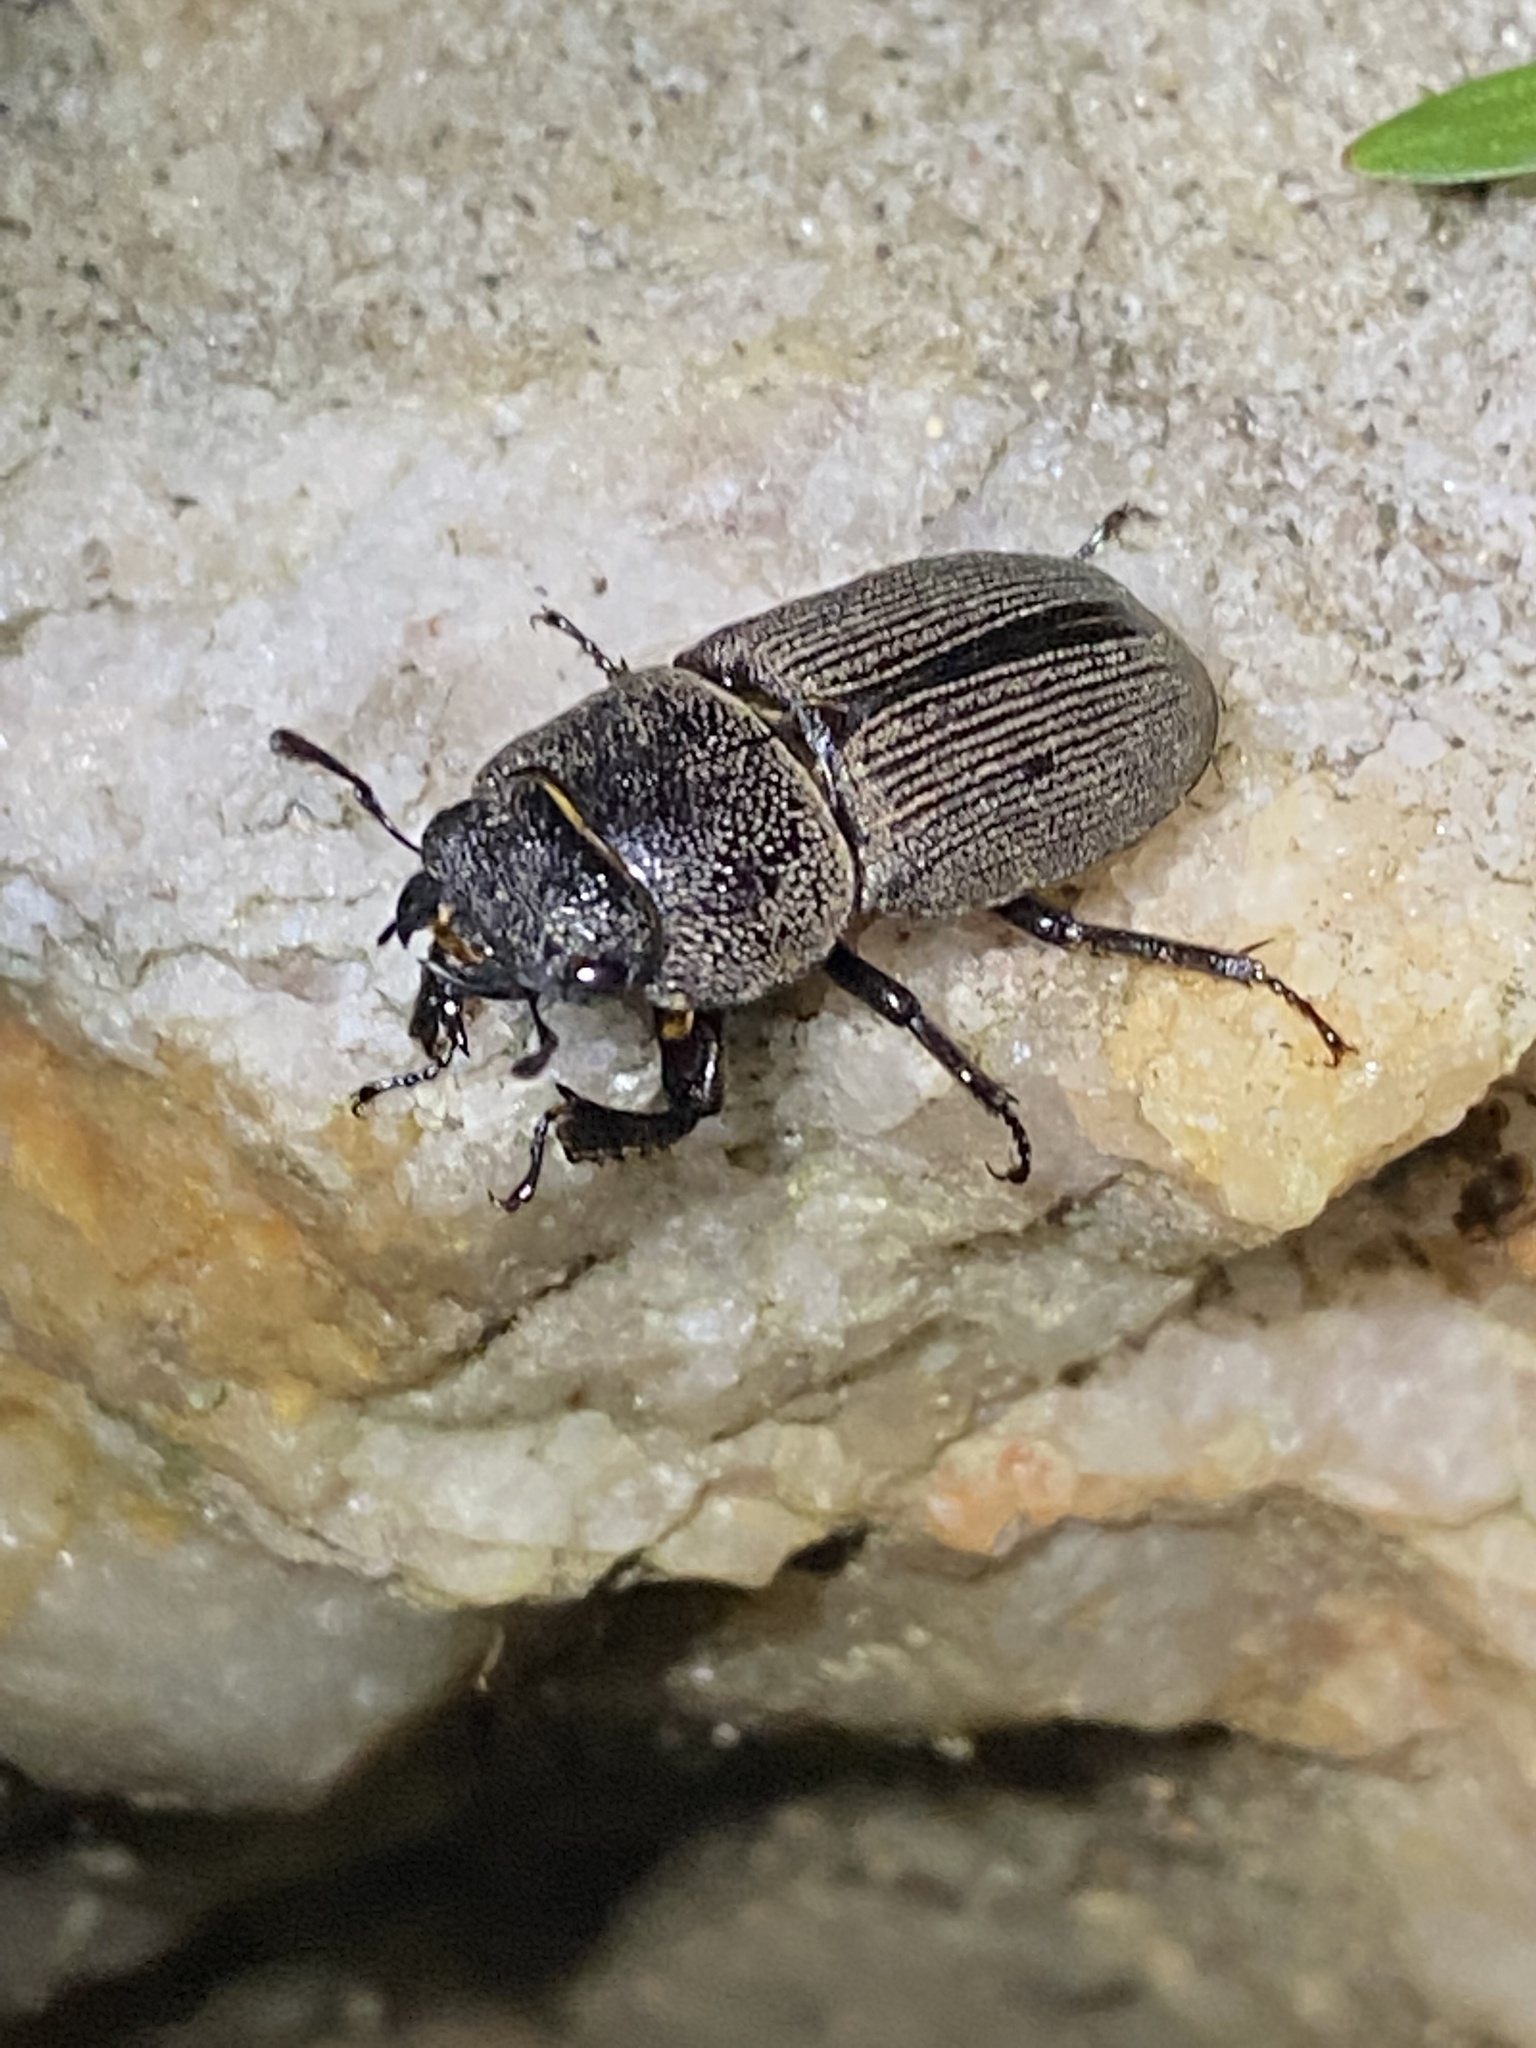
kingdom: Animalia
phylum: Arthropoda
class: Insecta
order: Coleoptera
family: Lucanidae
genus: Dorcus
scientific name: Dorcus brevis
